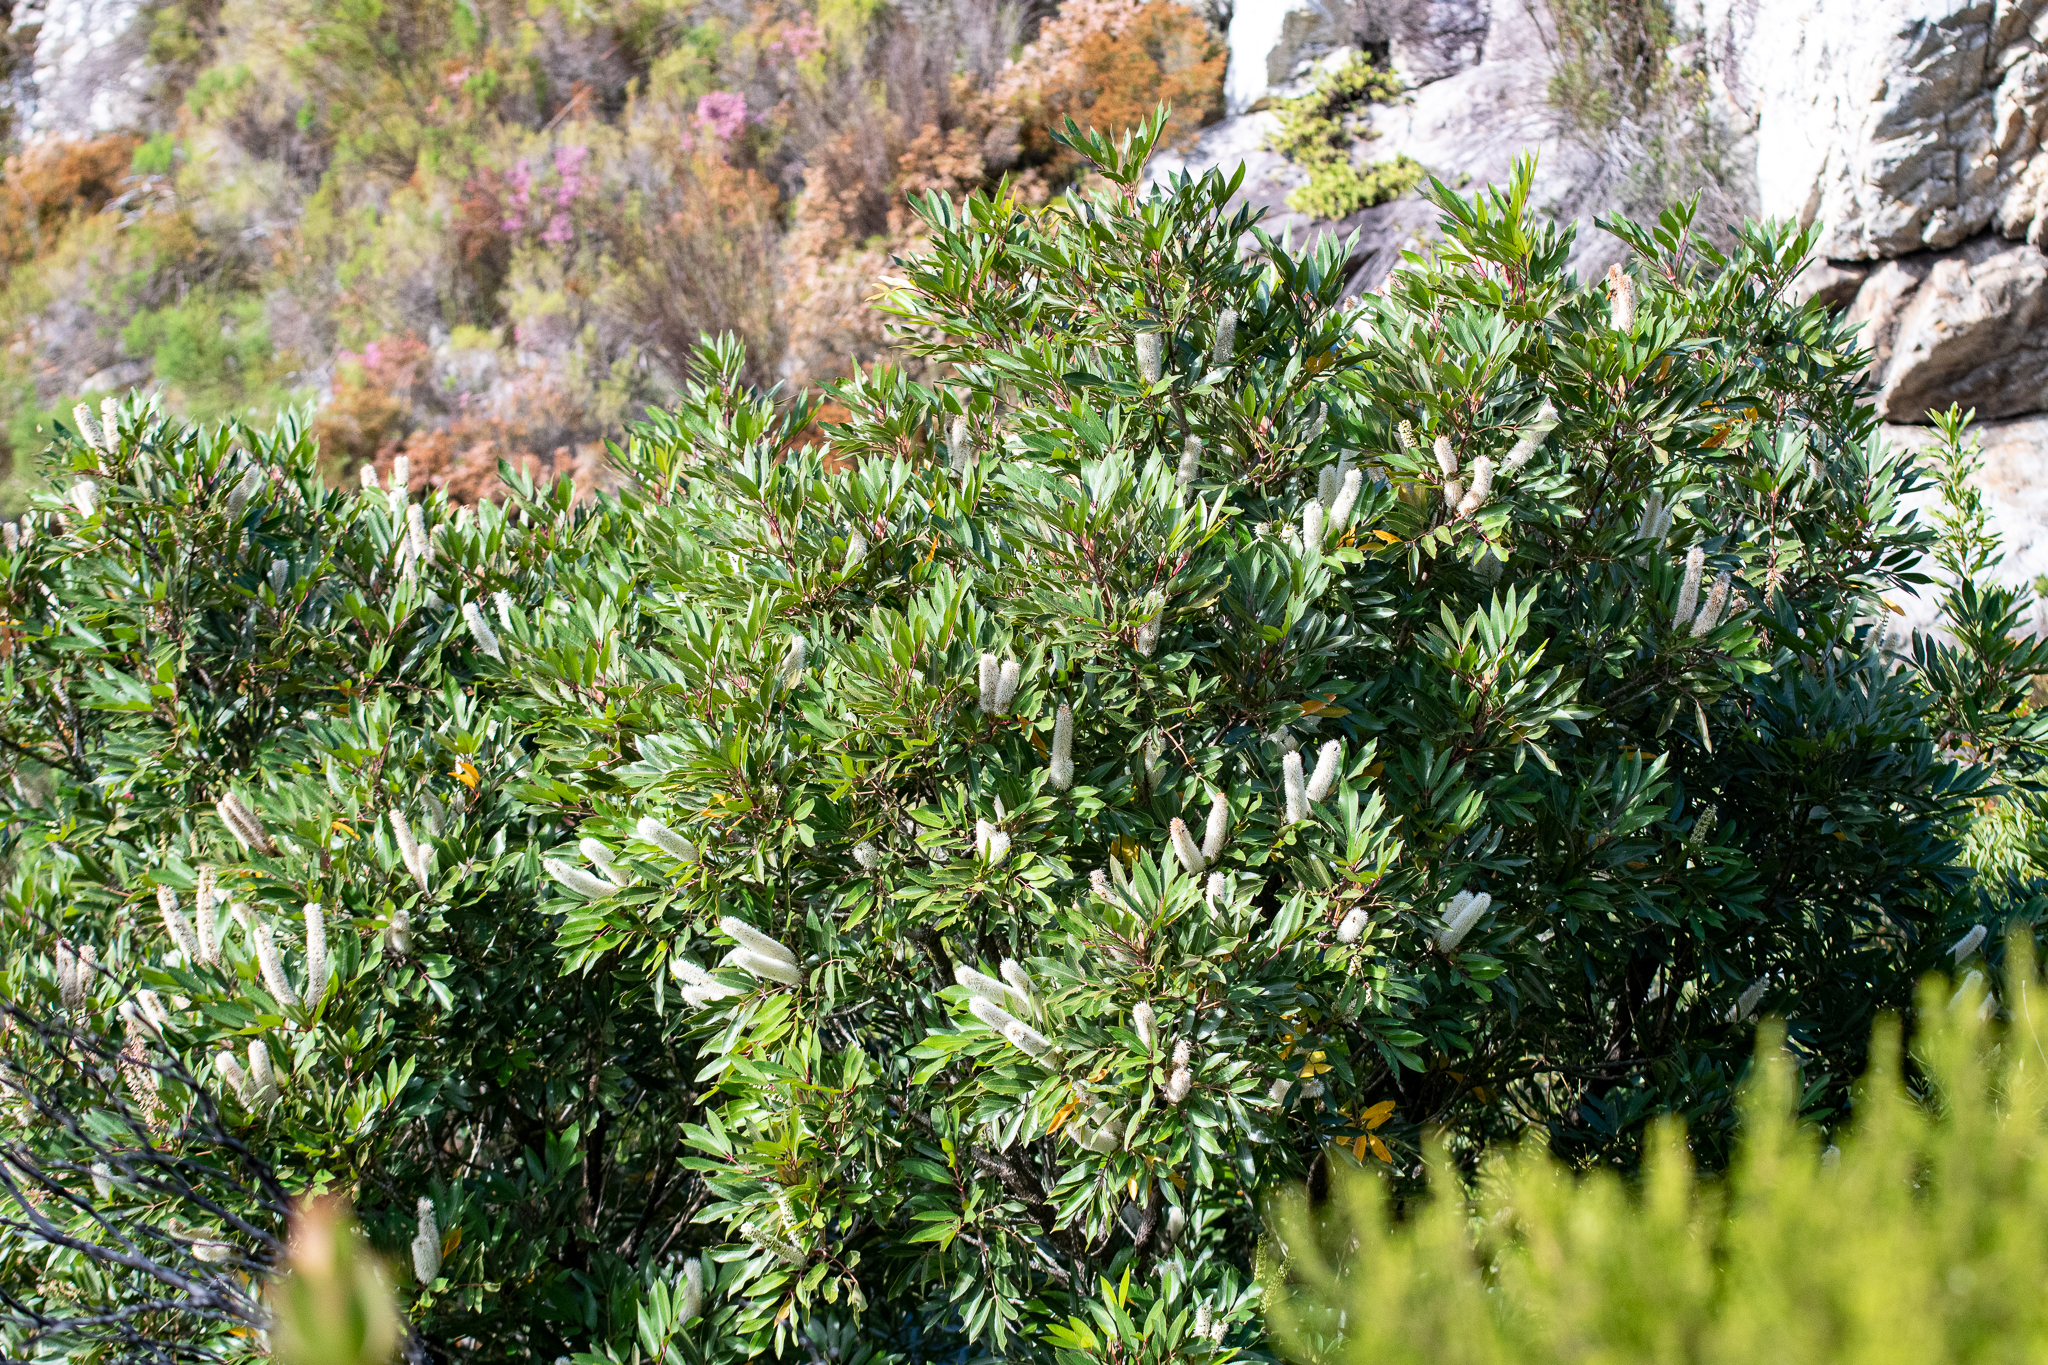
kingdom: Plantae
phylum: Tracheophyta
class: Magnoliopsida
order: Oxalidales
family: Cunoniaceae
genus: Cunonia
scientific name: Cunonia capensis
